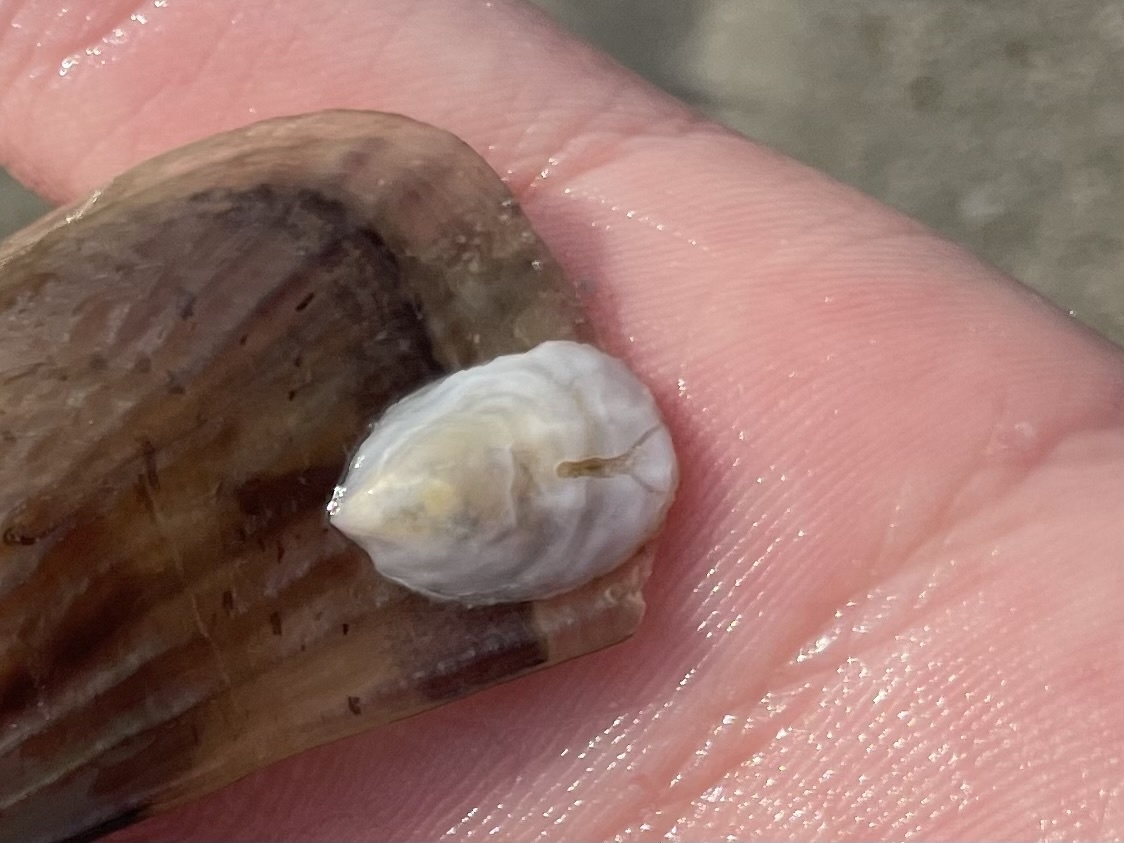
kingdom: Animalia
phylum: Mollusca
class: Gastropoda
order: Littorinimorpha
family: Calyptraeidae
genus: Crepidula
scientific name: Crepidula
